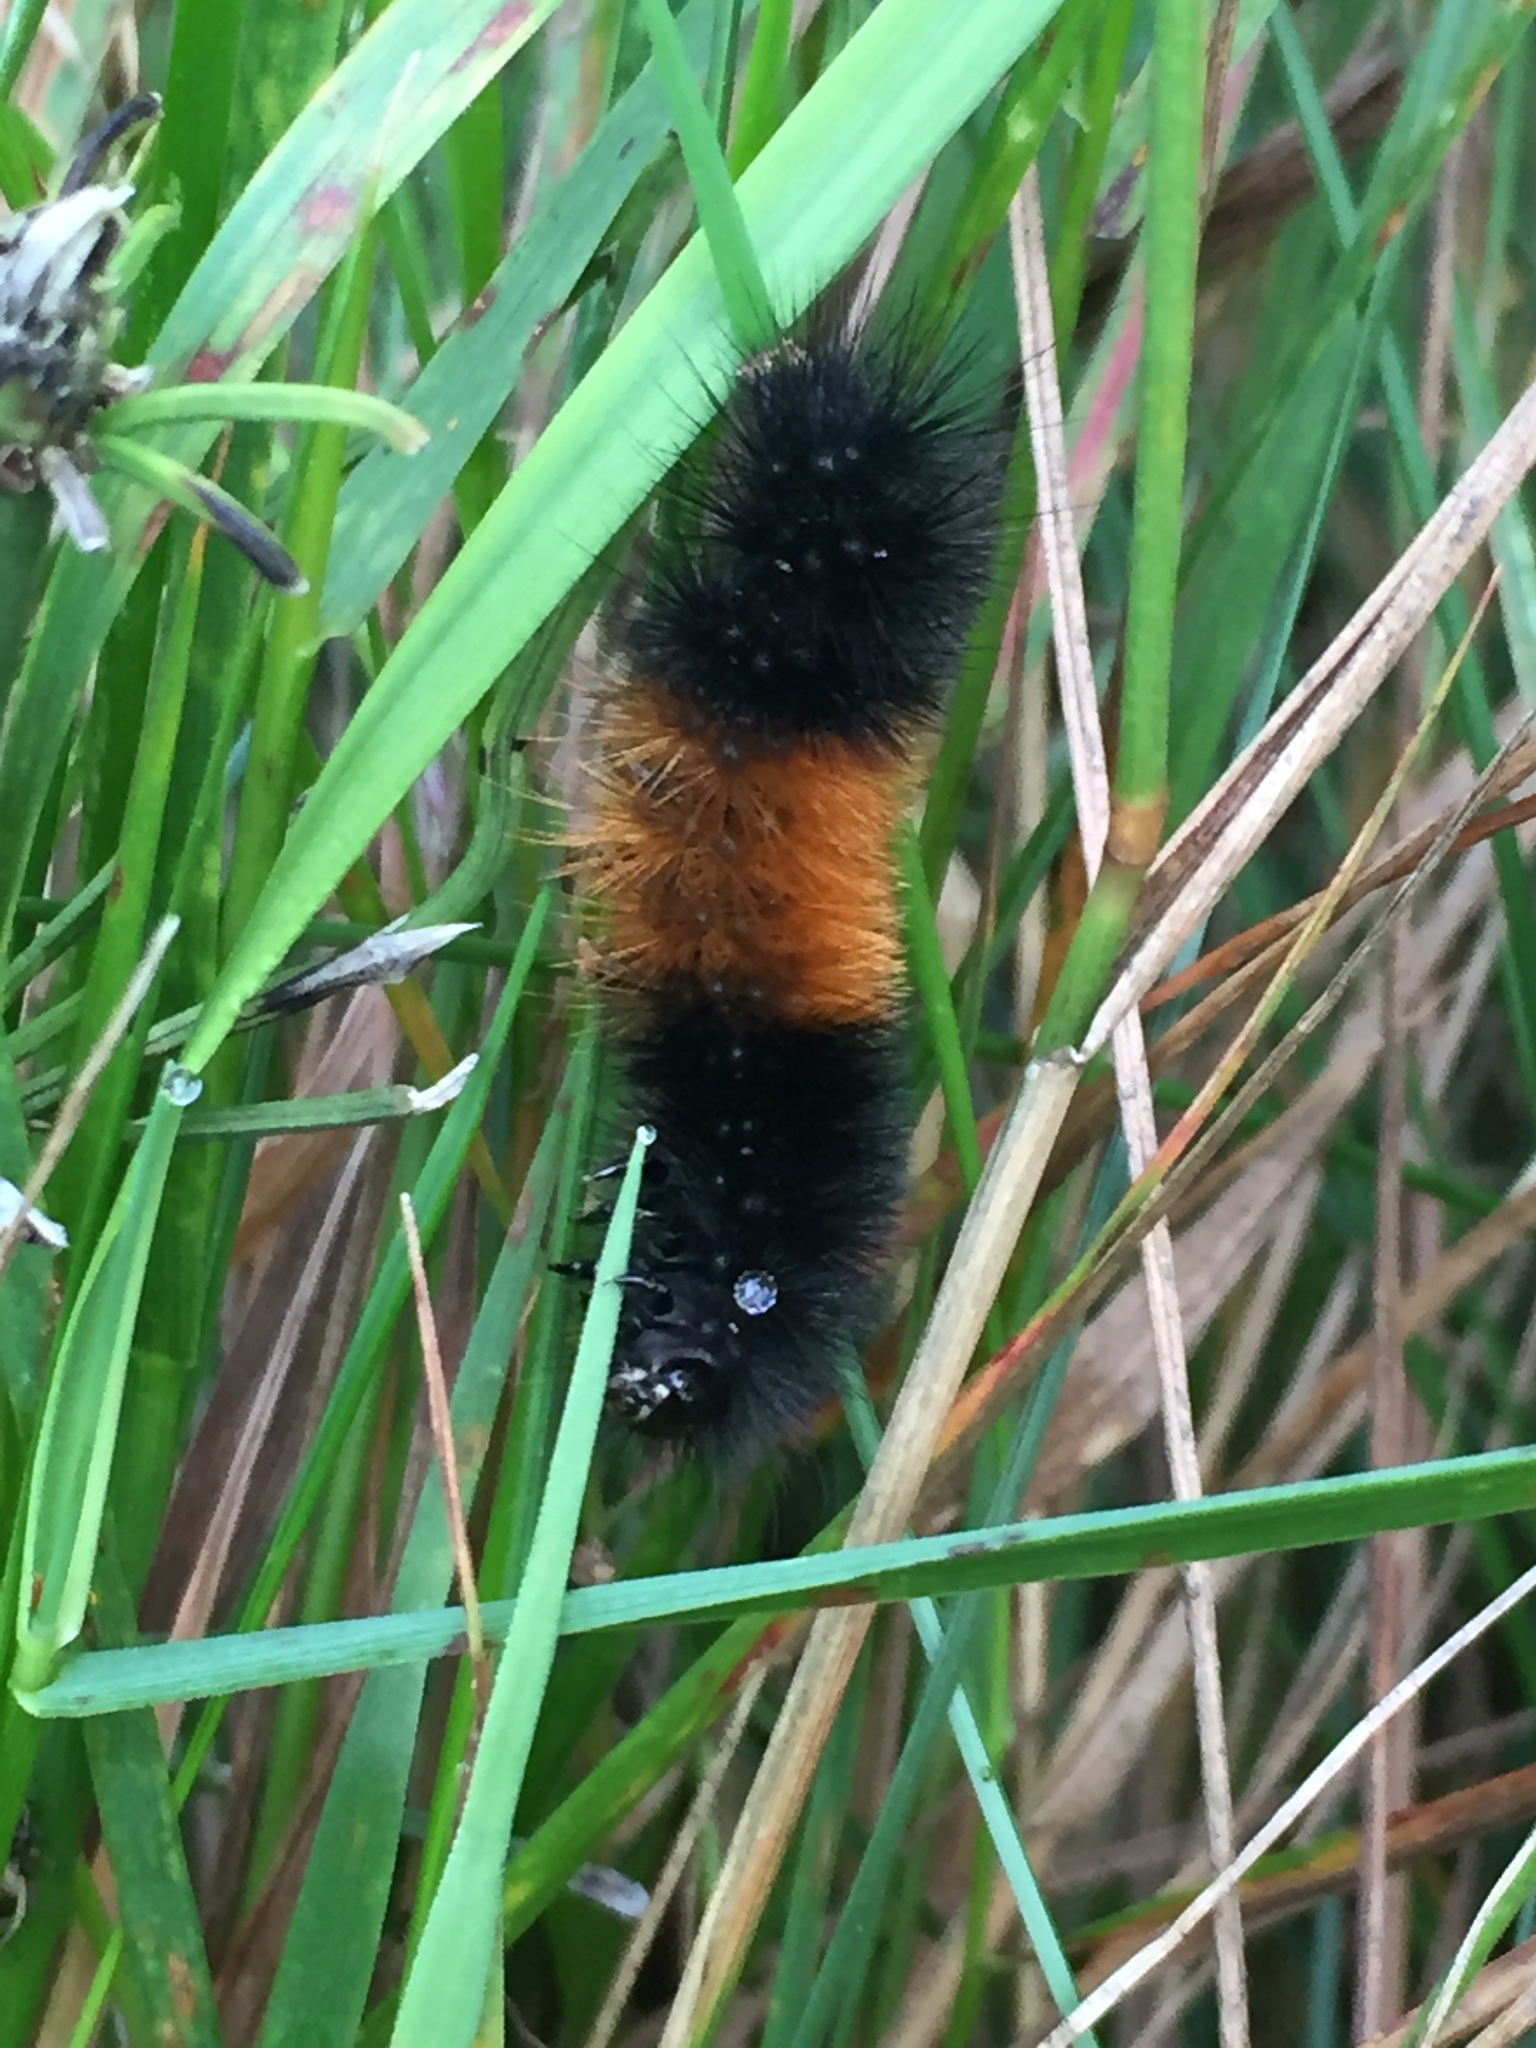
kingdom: Animalia
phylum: Arthropoda
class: Insecta
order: Lepidoptera
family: Erebidae
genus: Pyrrharctia
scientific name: Pyrrharctia isabella
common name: Isabella tiger moth
